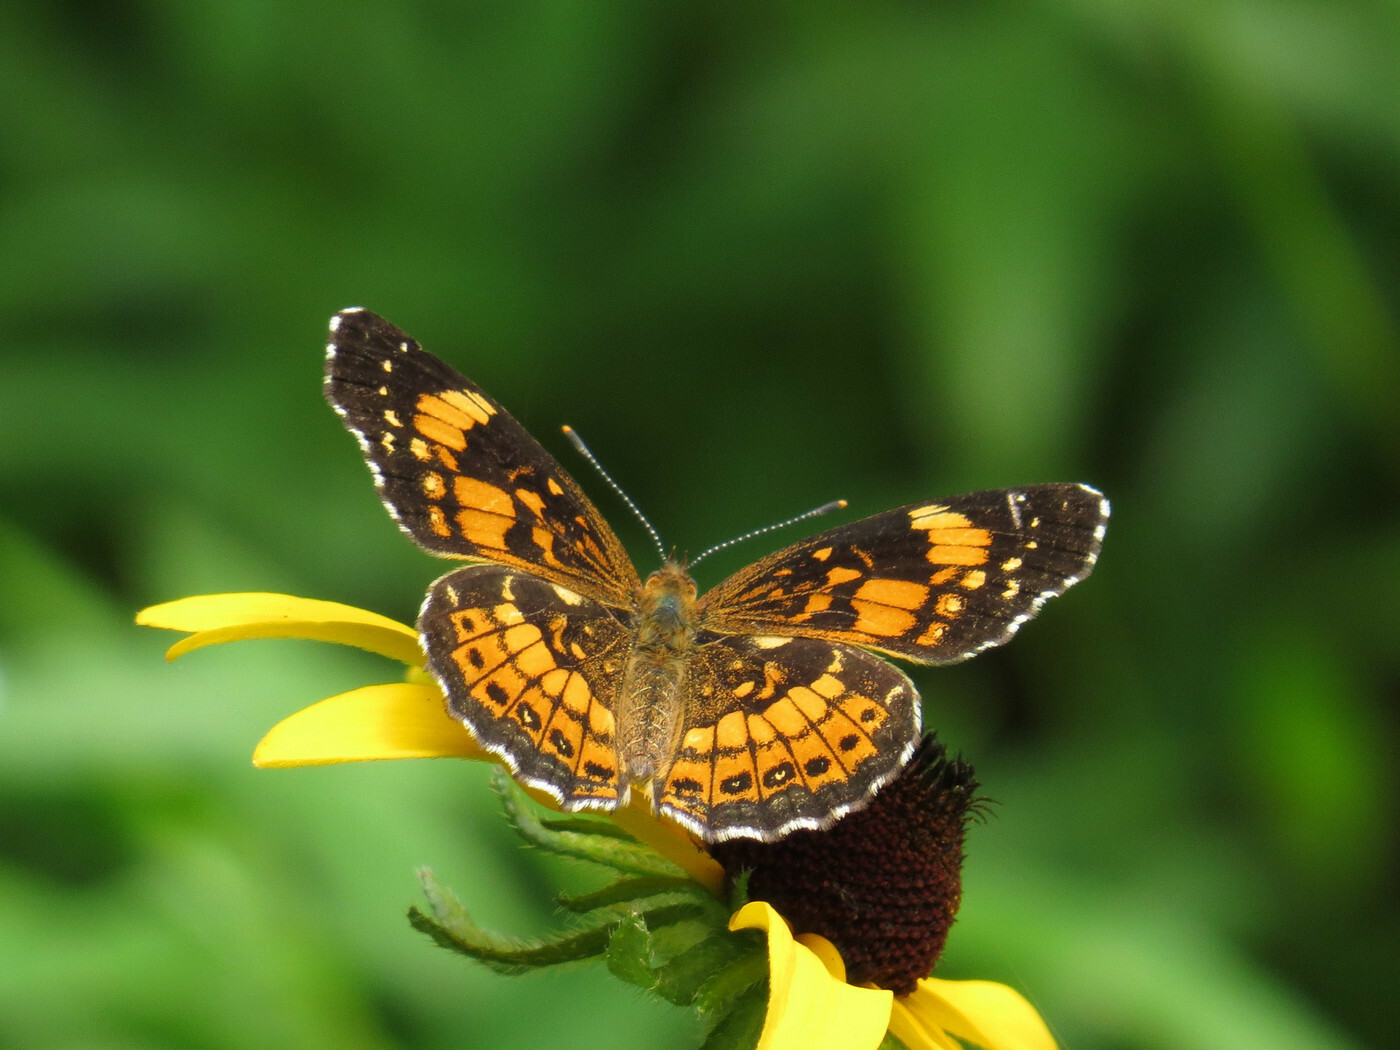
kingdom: Animalia
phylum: Arthropoda
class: Insecta
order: Lepidoptera
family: Nymphalidae
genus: Chlosyne
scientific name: Chlosyne nycteis
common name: Silvery checkerspot
